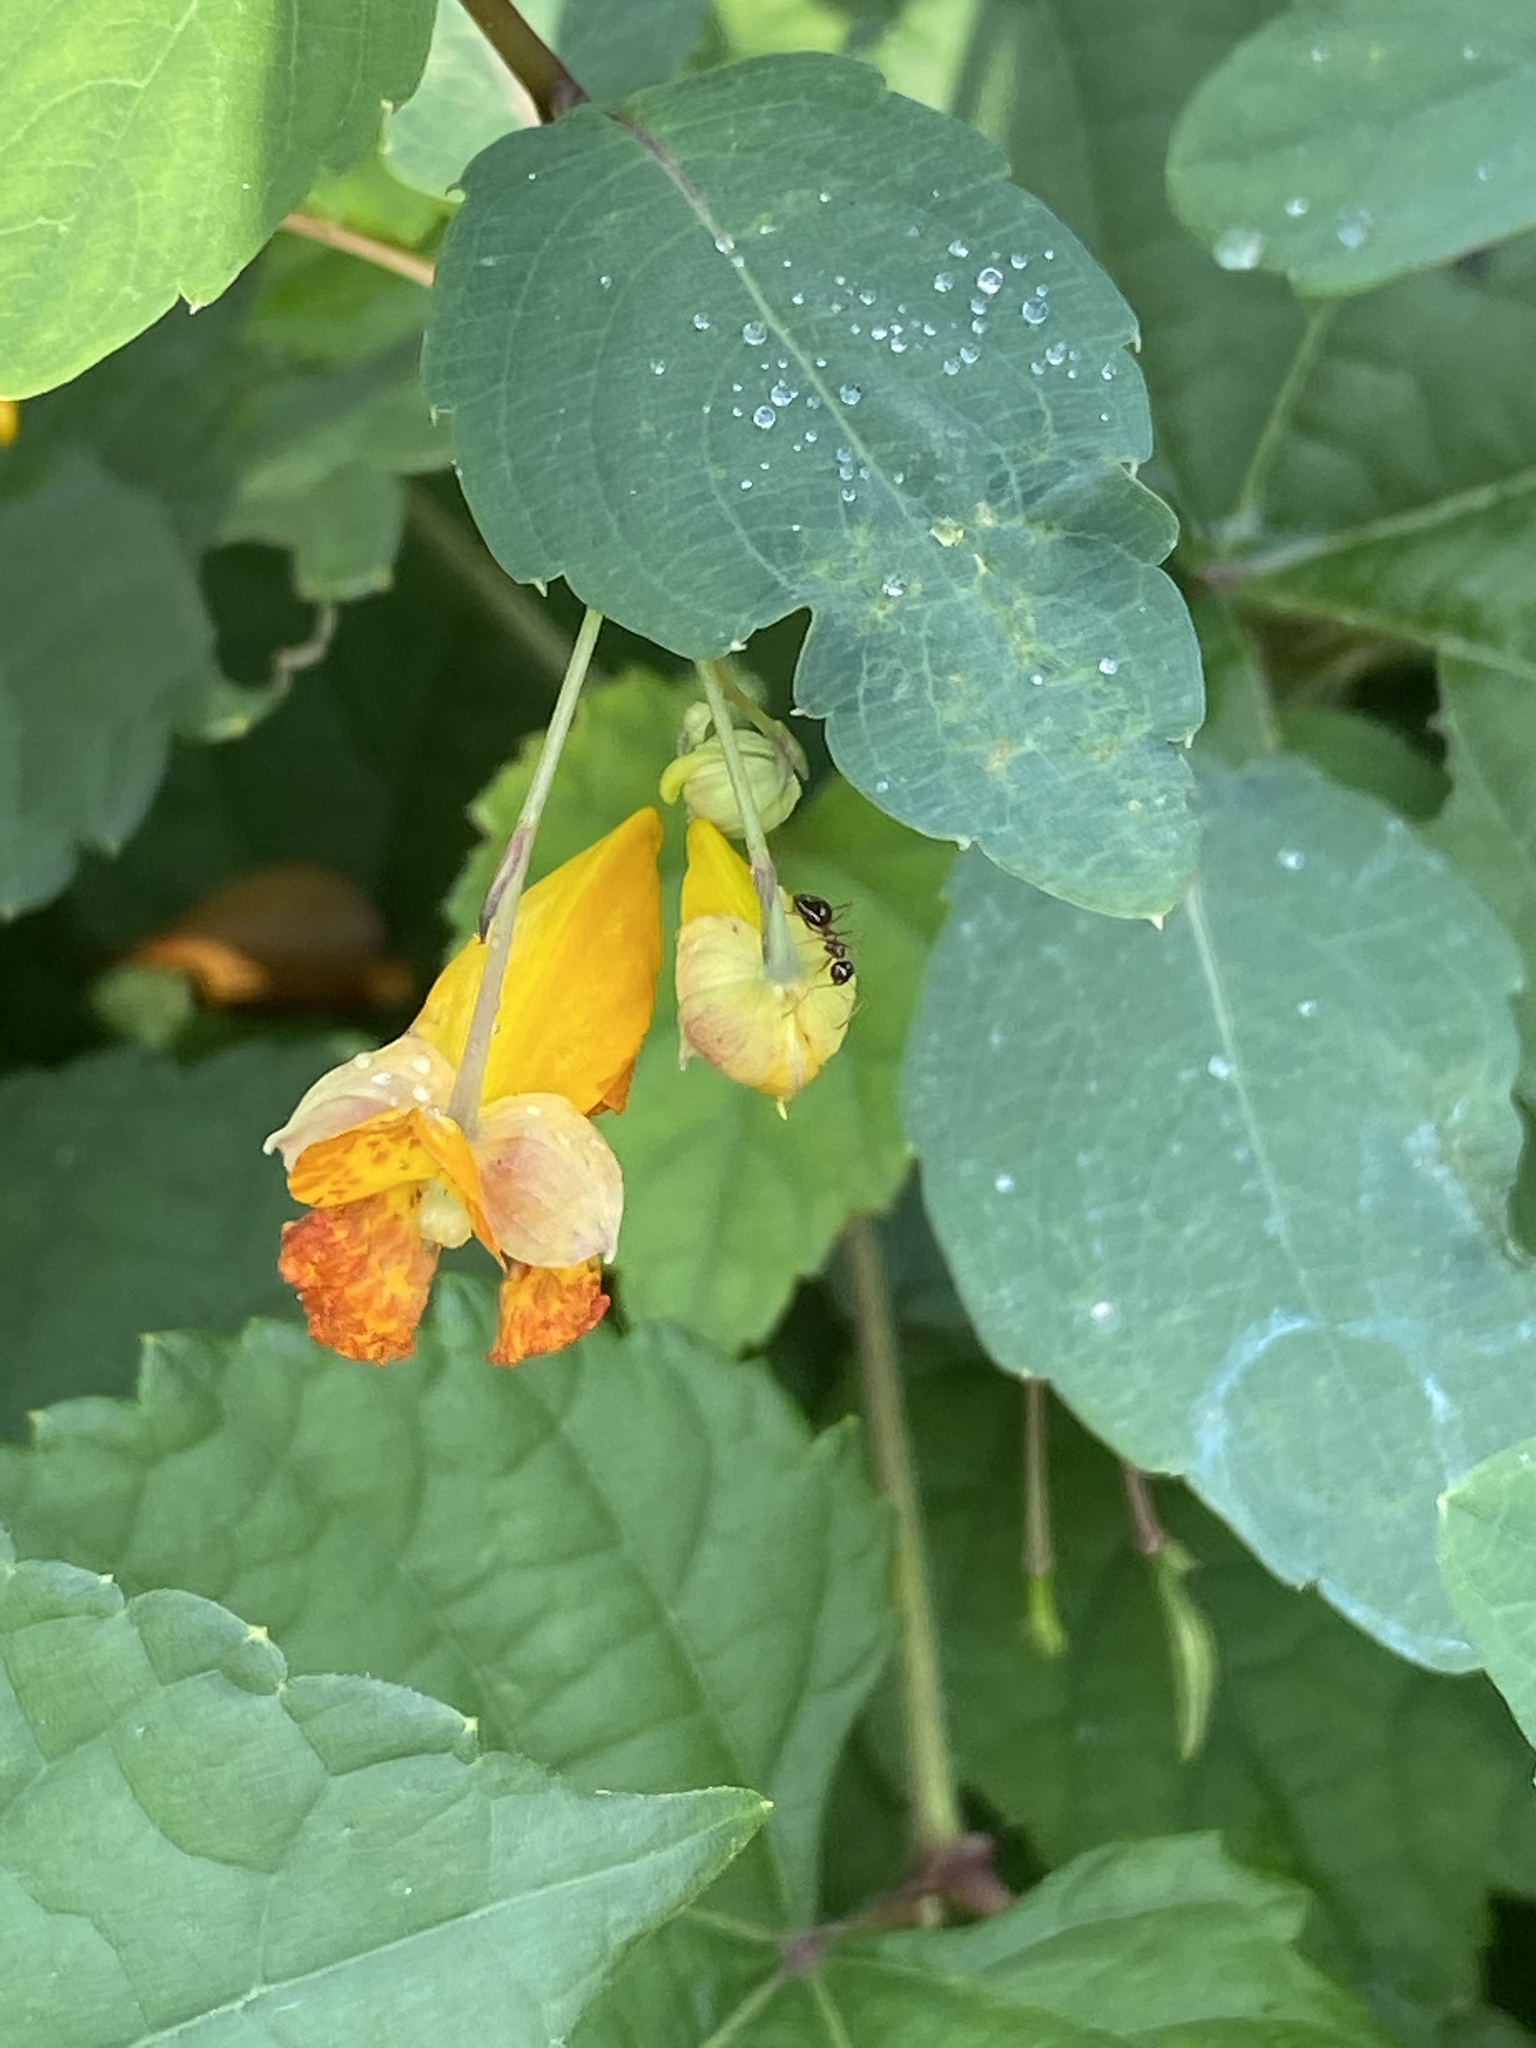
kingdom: Plantae
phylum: Tracheophyta
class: Magnoliopsida
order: Ericales
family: Balsaminaceae
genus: Impatiens
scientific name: Impatiens capensis
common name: Orange balsam
